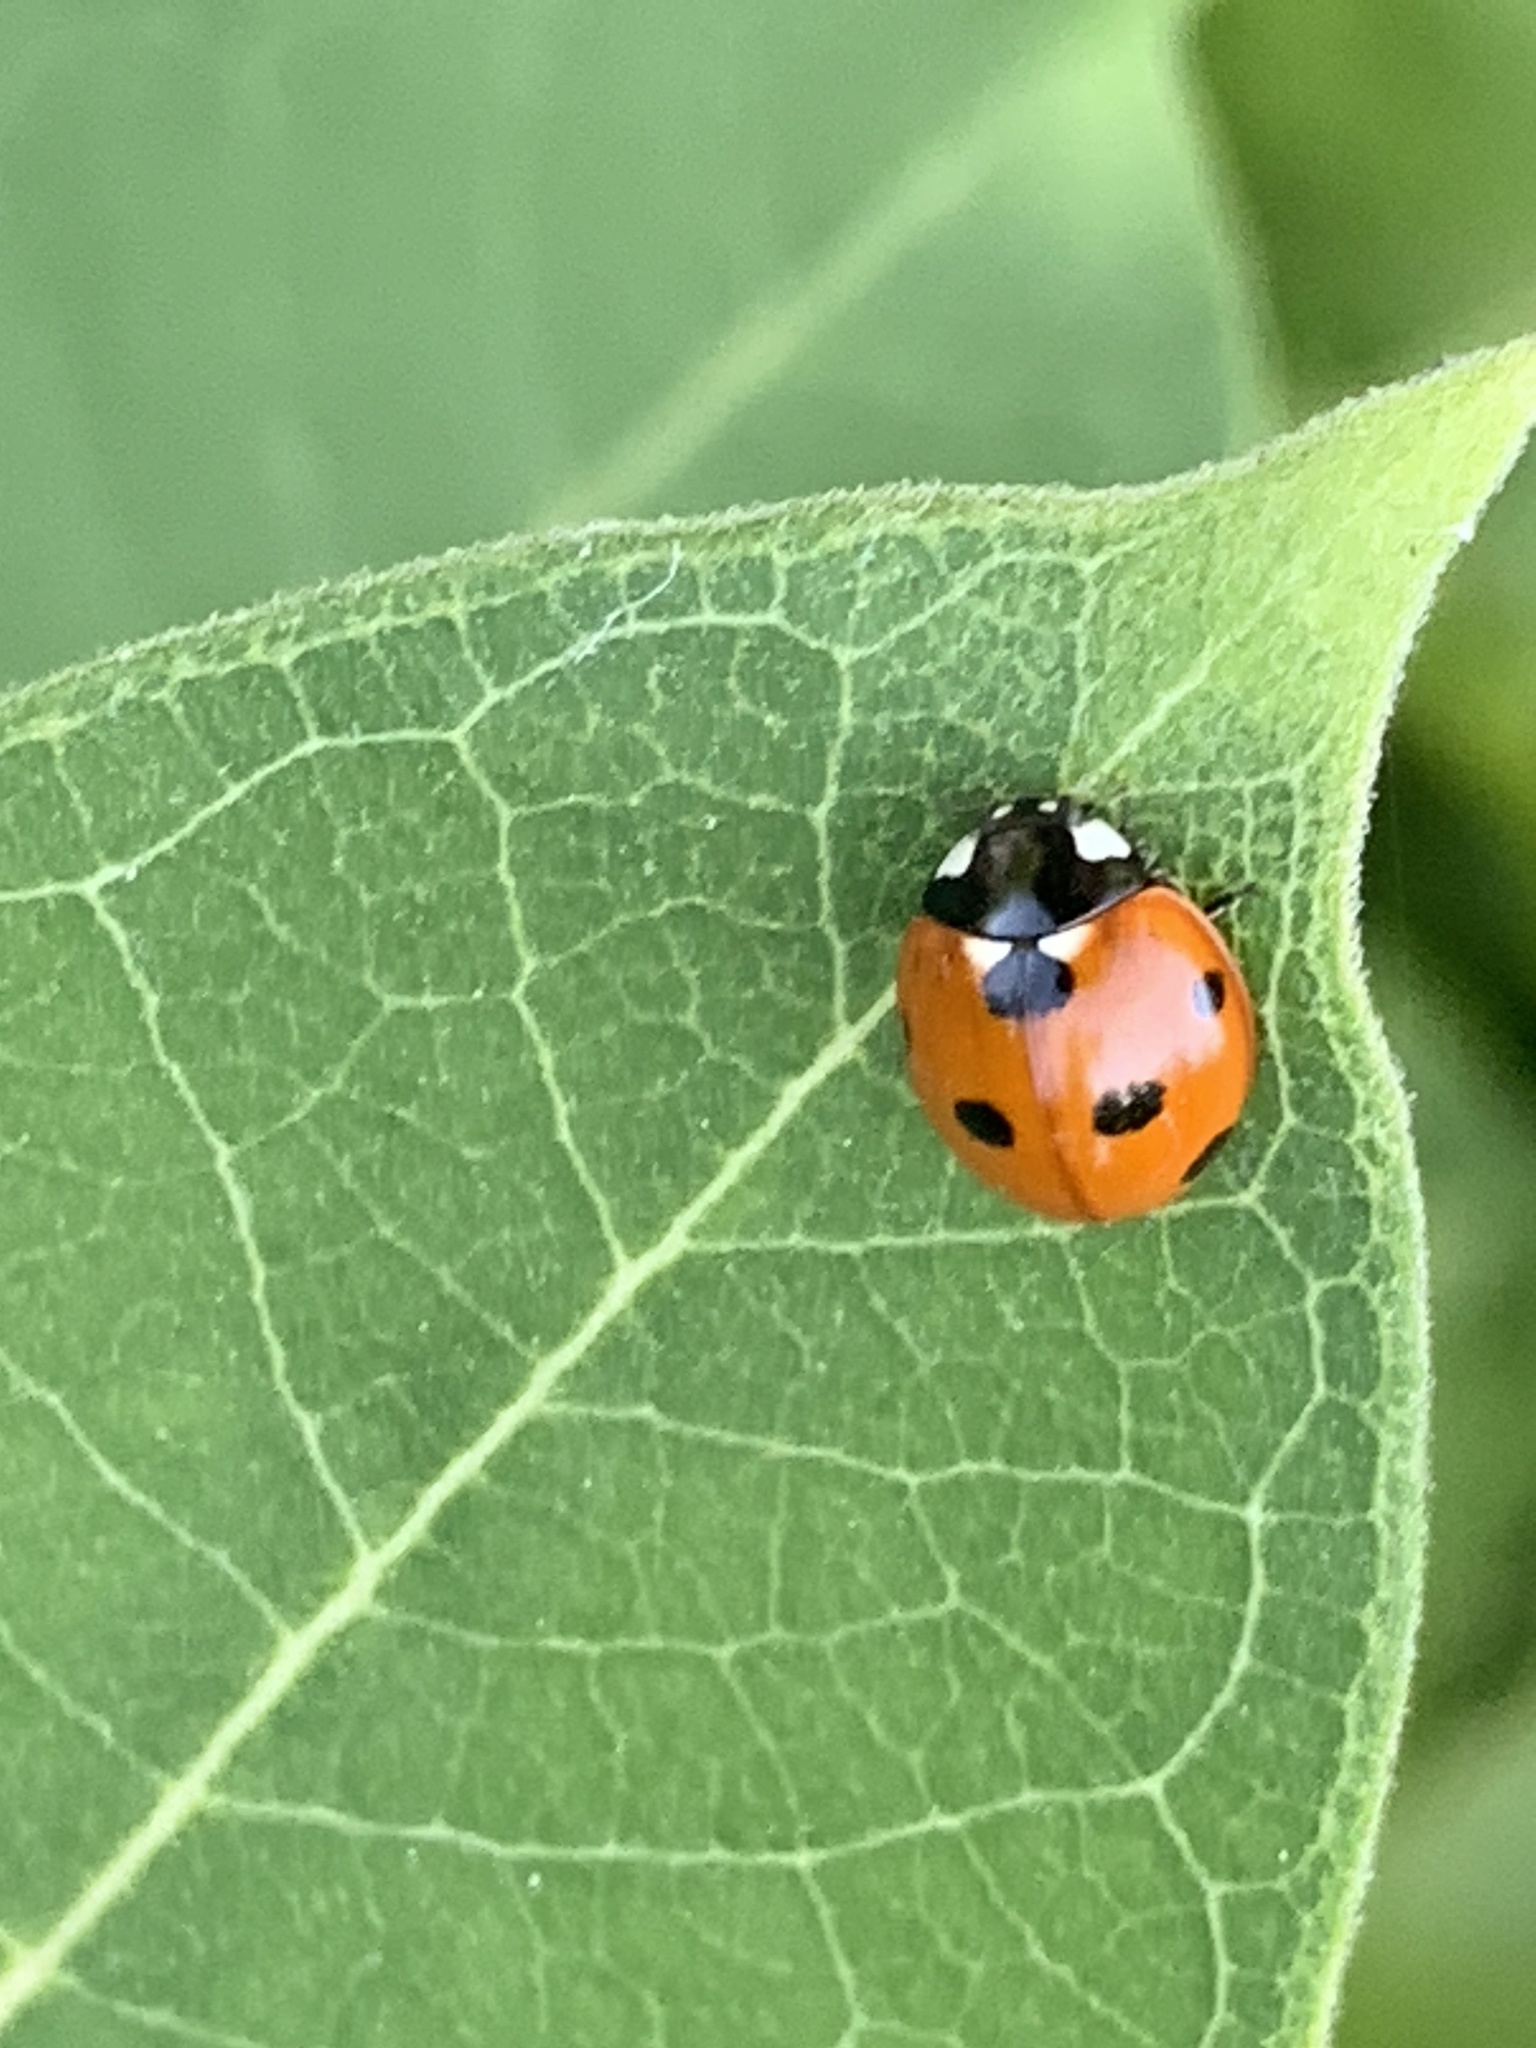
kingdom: Animalia
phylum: Arthropoda
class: Insecta
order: Coleoptera
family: Coccinellidae
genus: Coccinella
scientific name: Coccinella septempunctata
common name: Sevenspotted lady beetle
